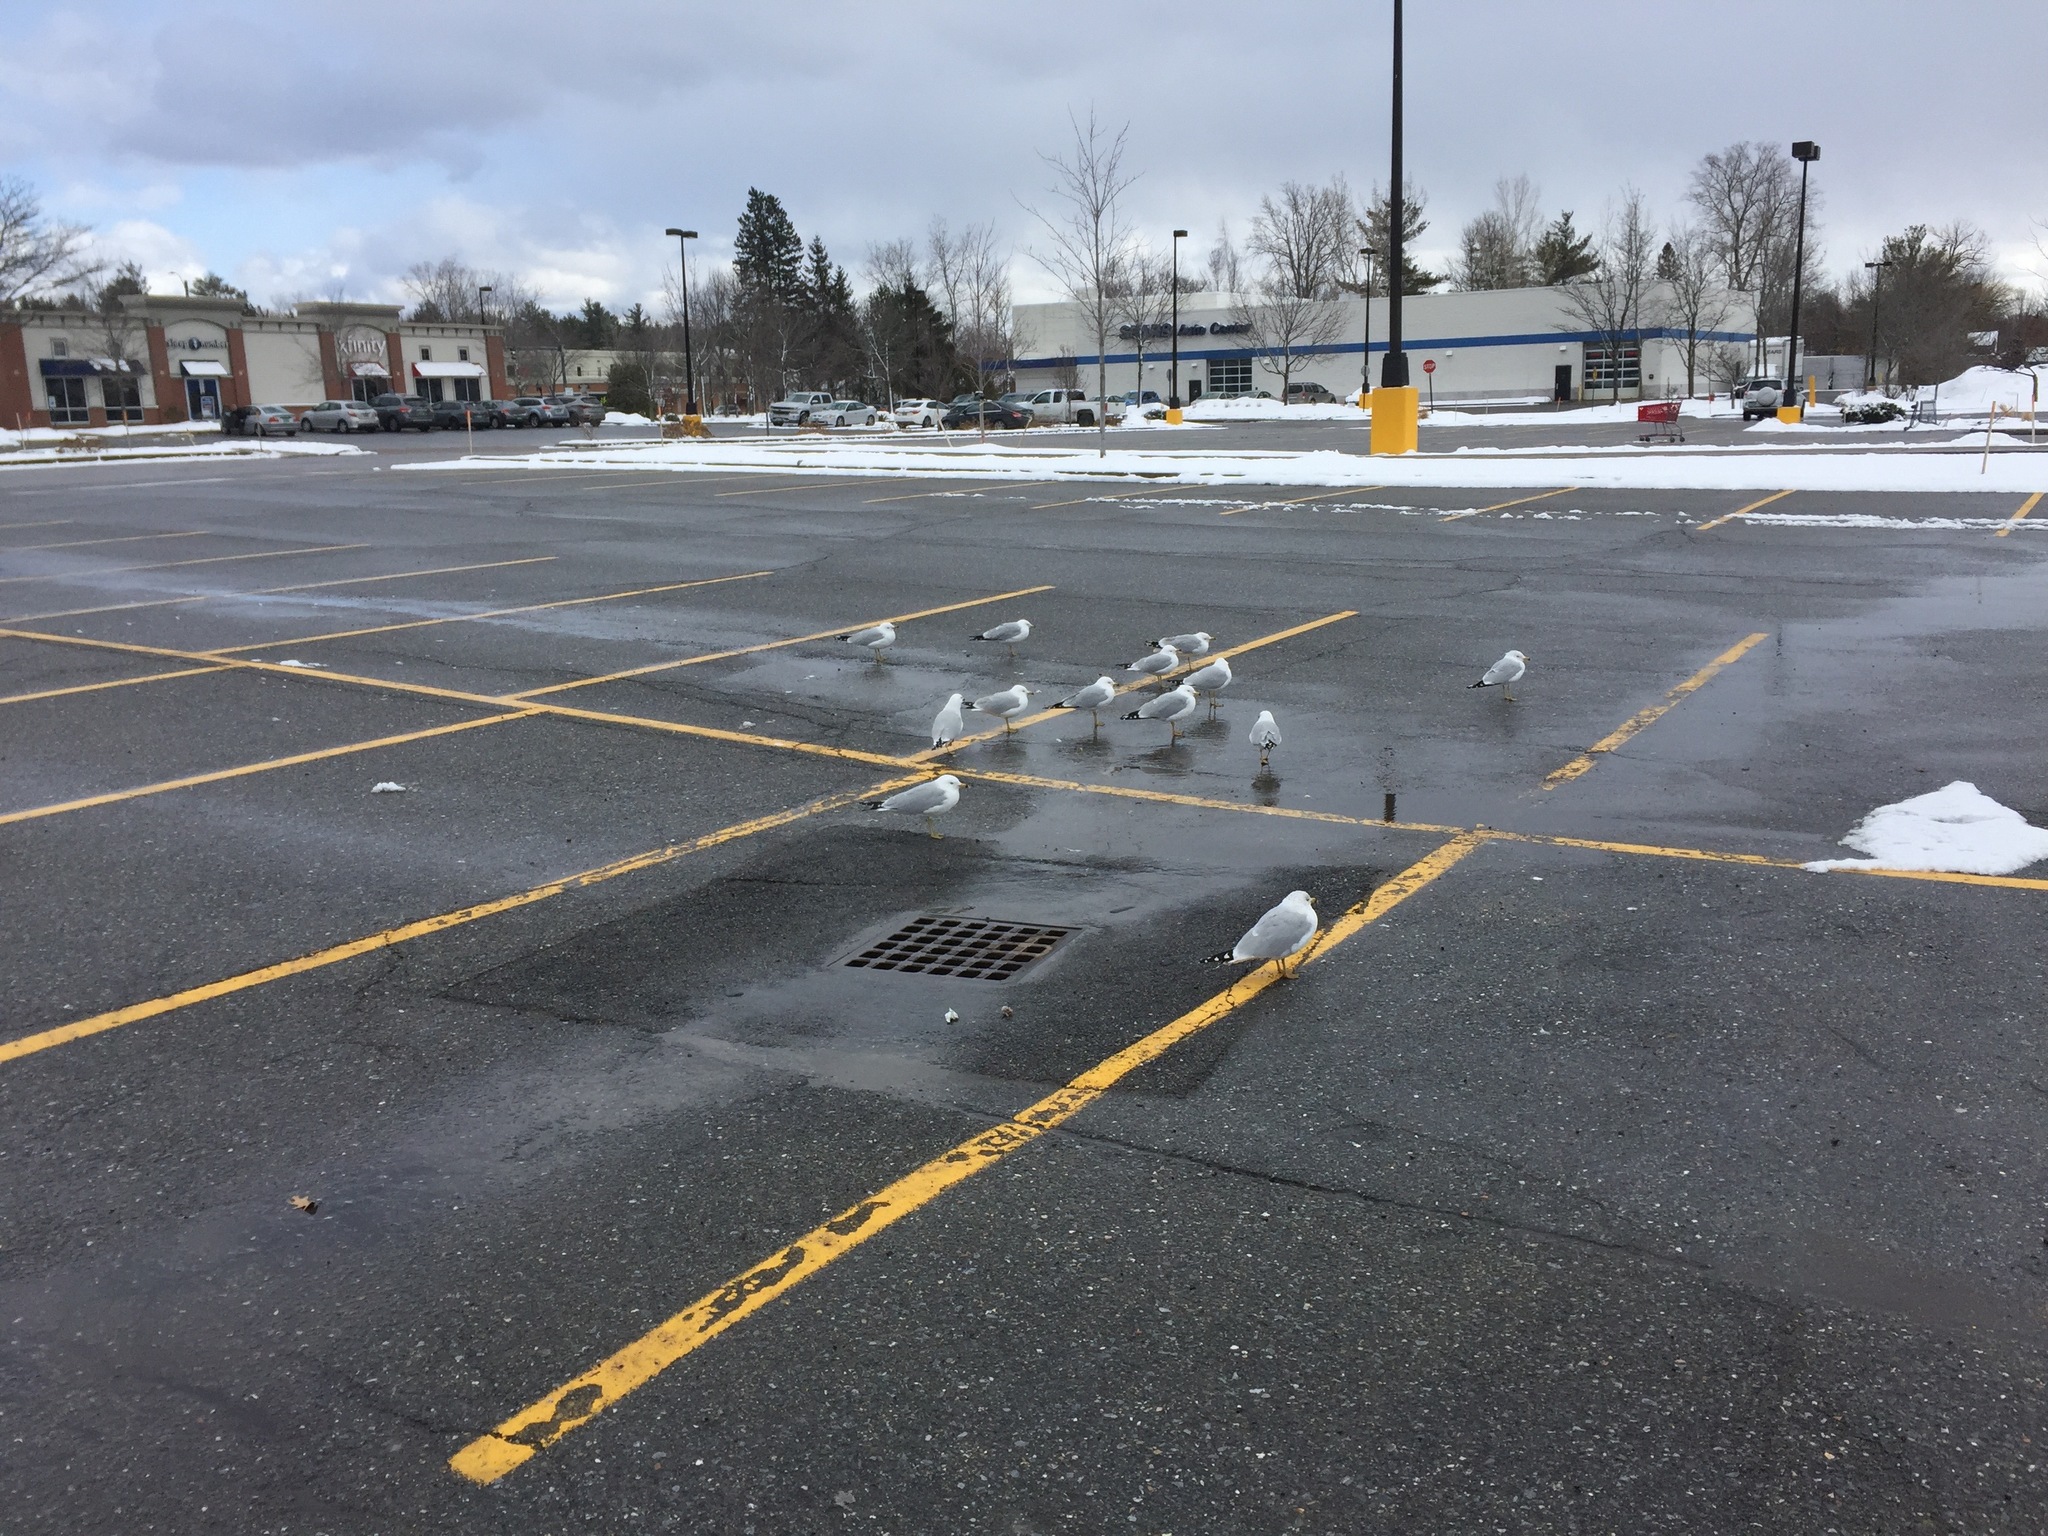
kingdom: Animalia
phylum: Chordata
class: Aves
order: Charadriiformes
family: Laridae
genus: Larus
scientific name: Larus delawarensis
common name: Ring-billed gull
